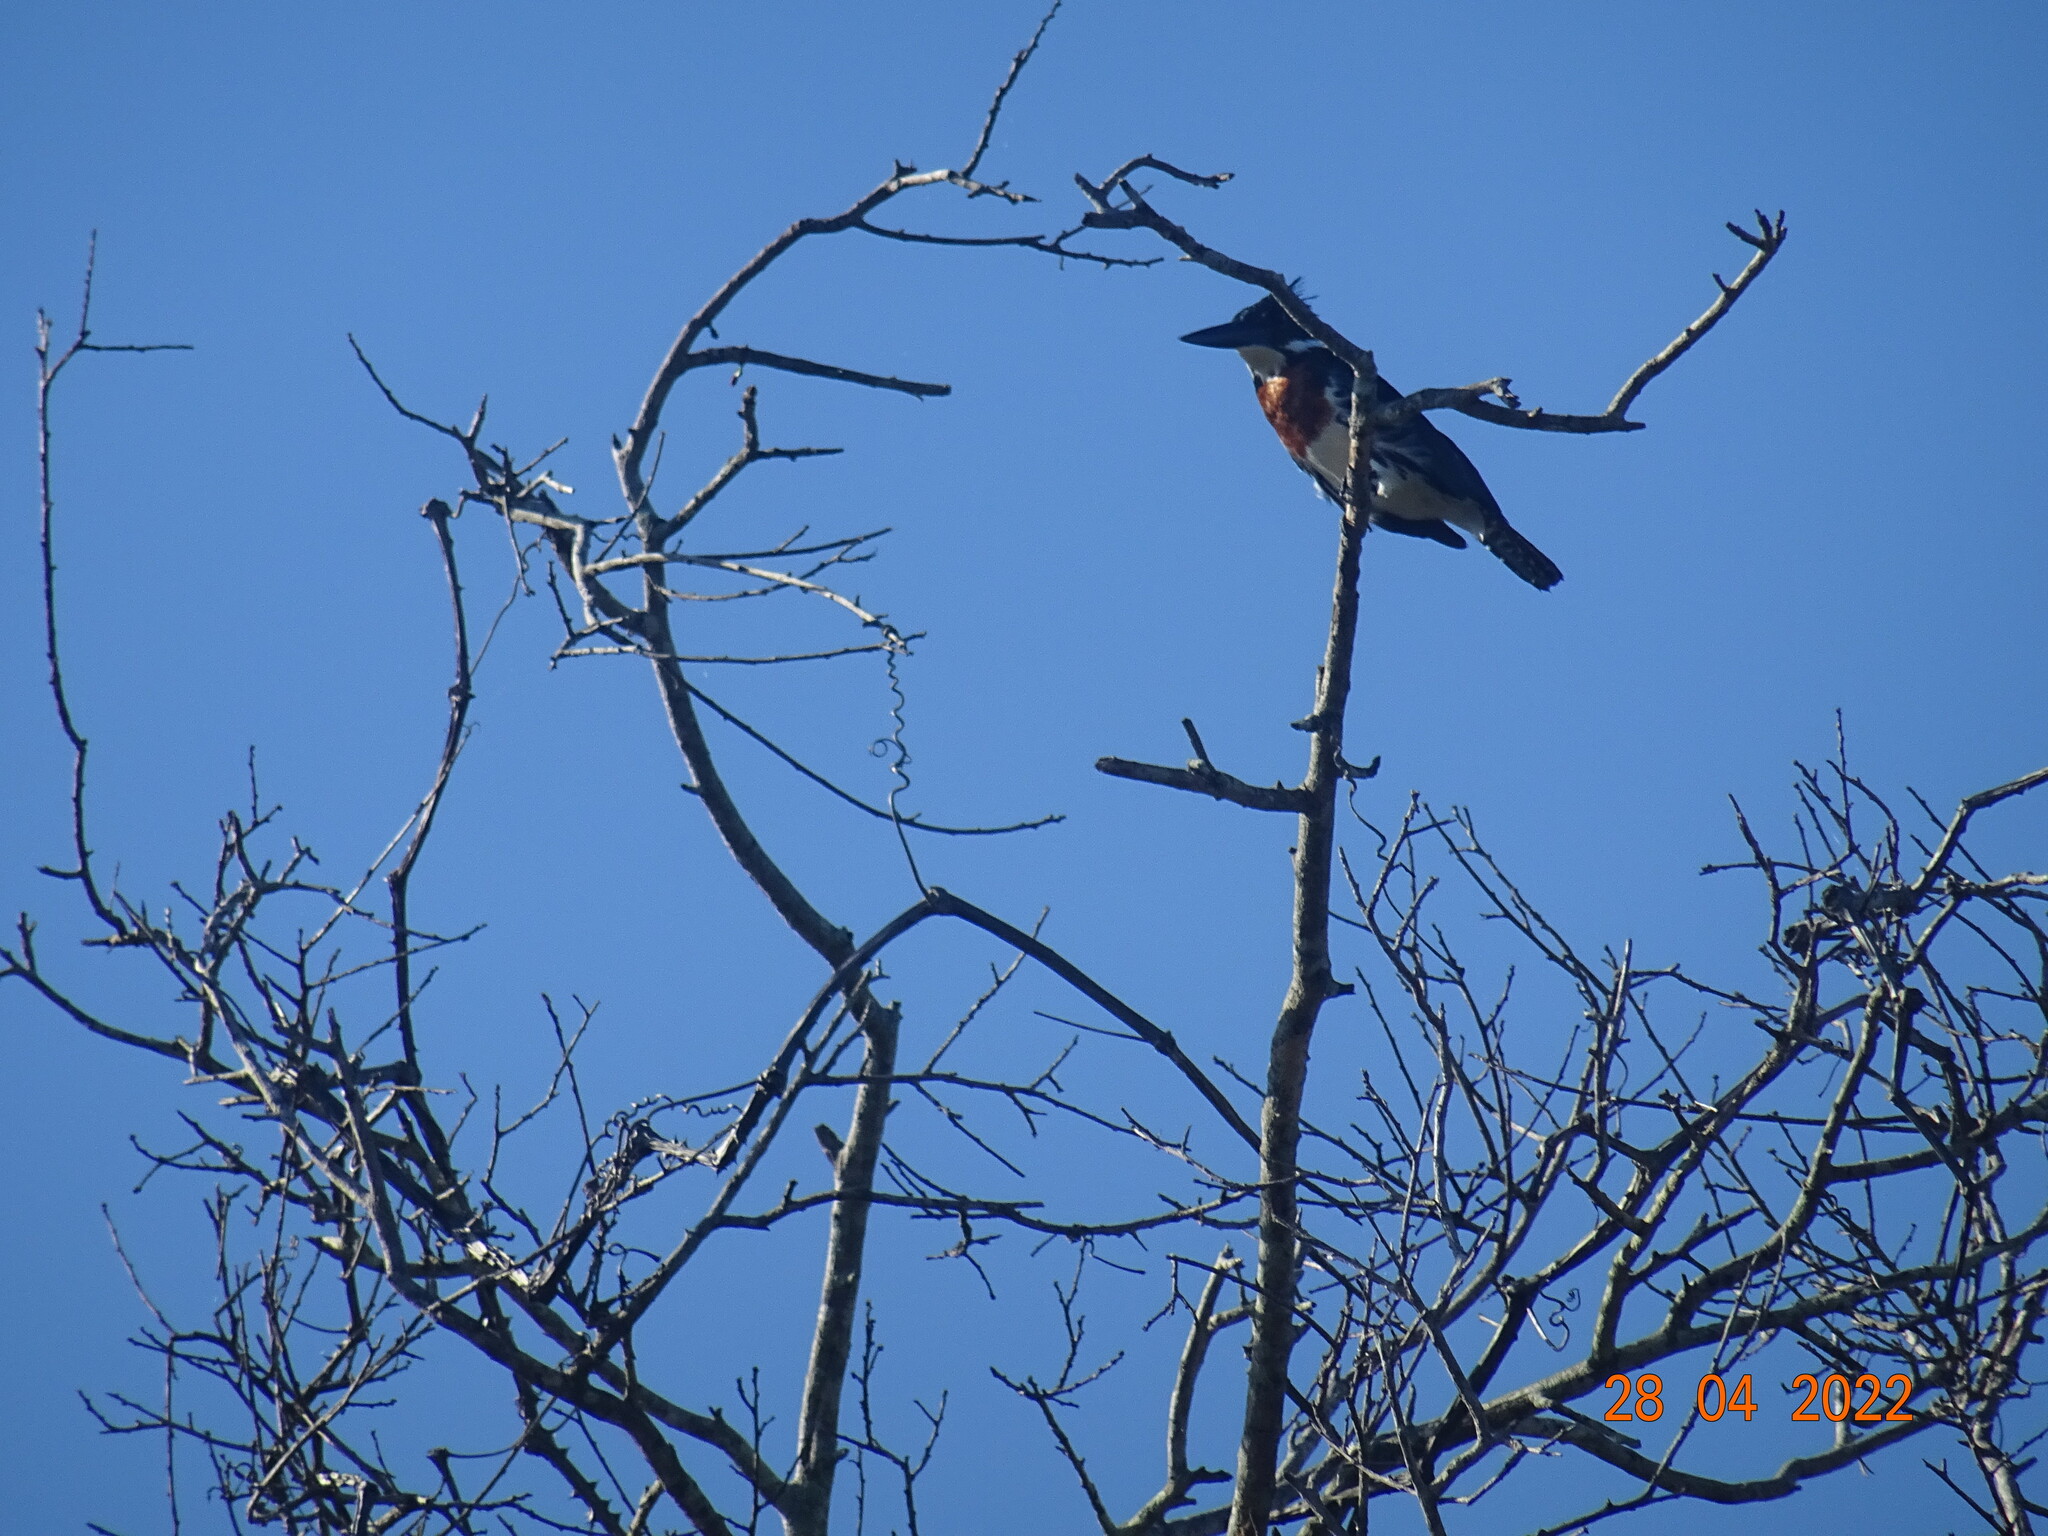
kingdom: Animalia
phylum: Chordata
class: Aves
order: Coraciiformes
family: Alcedinidae
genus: Chloroceryle
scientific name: Chloroceryle amazona
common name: Amazon kingfisher
